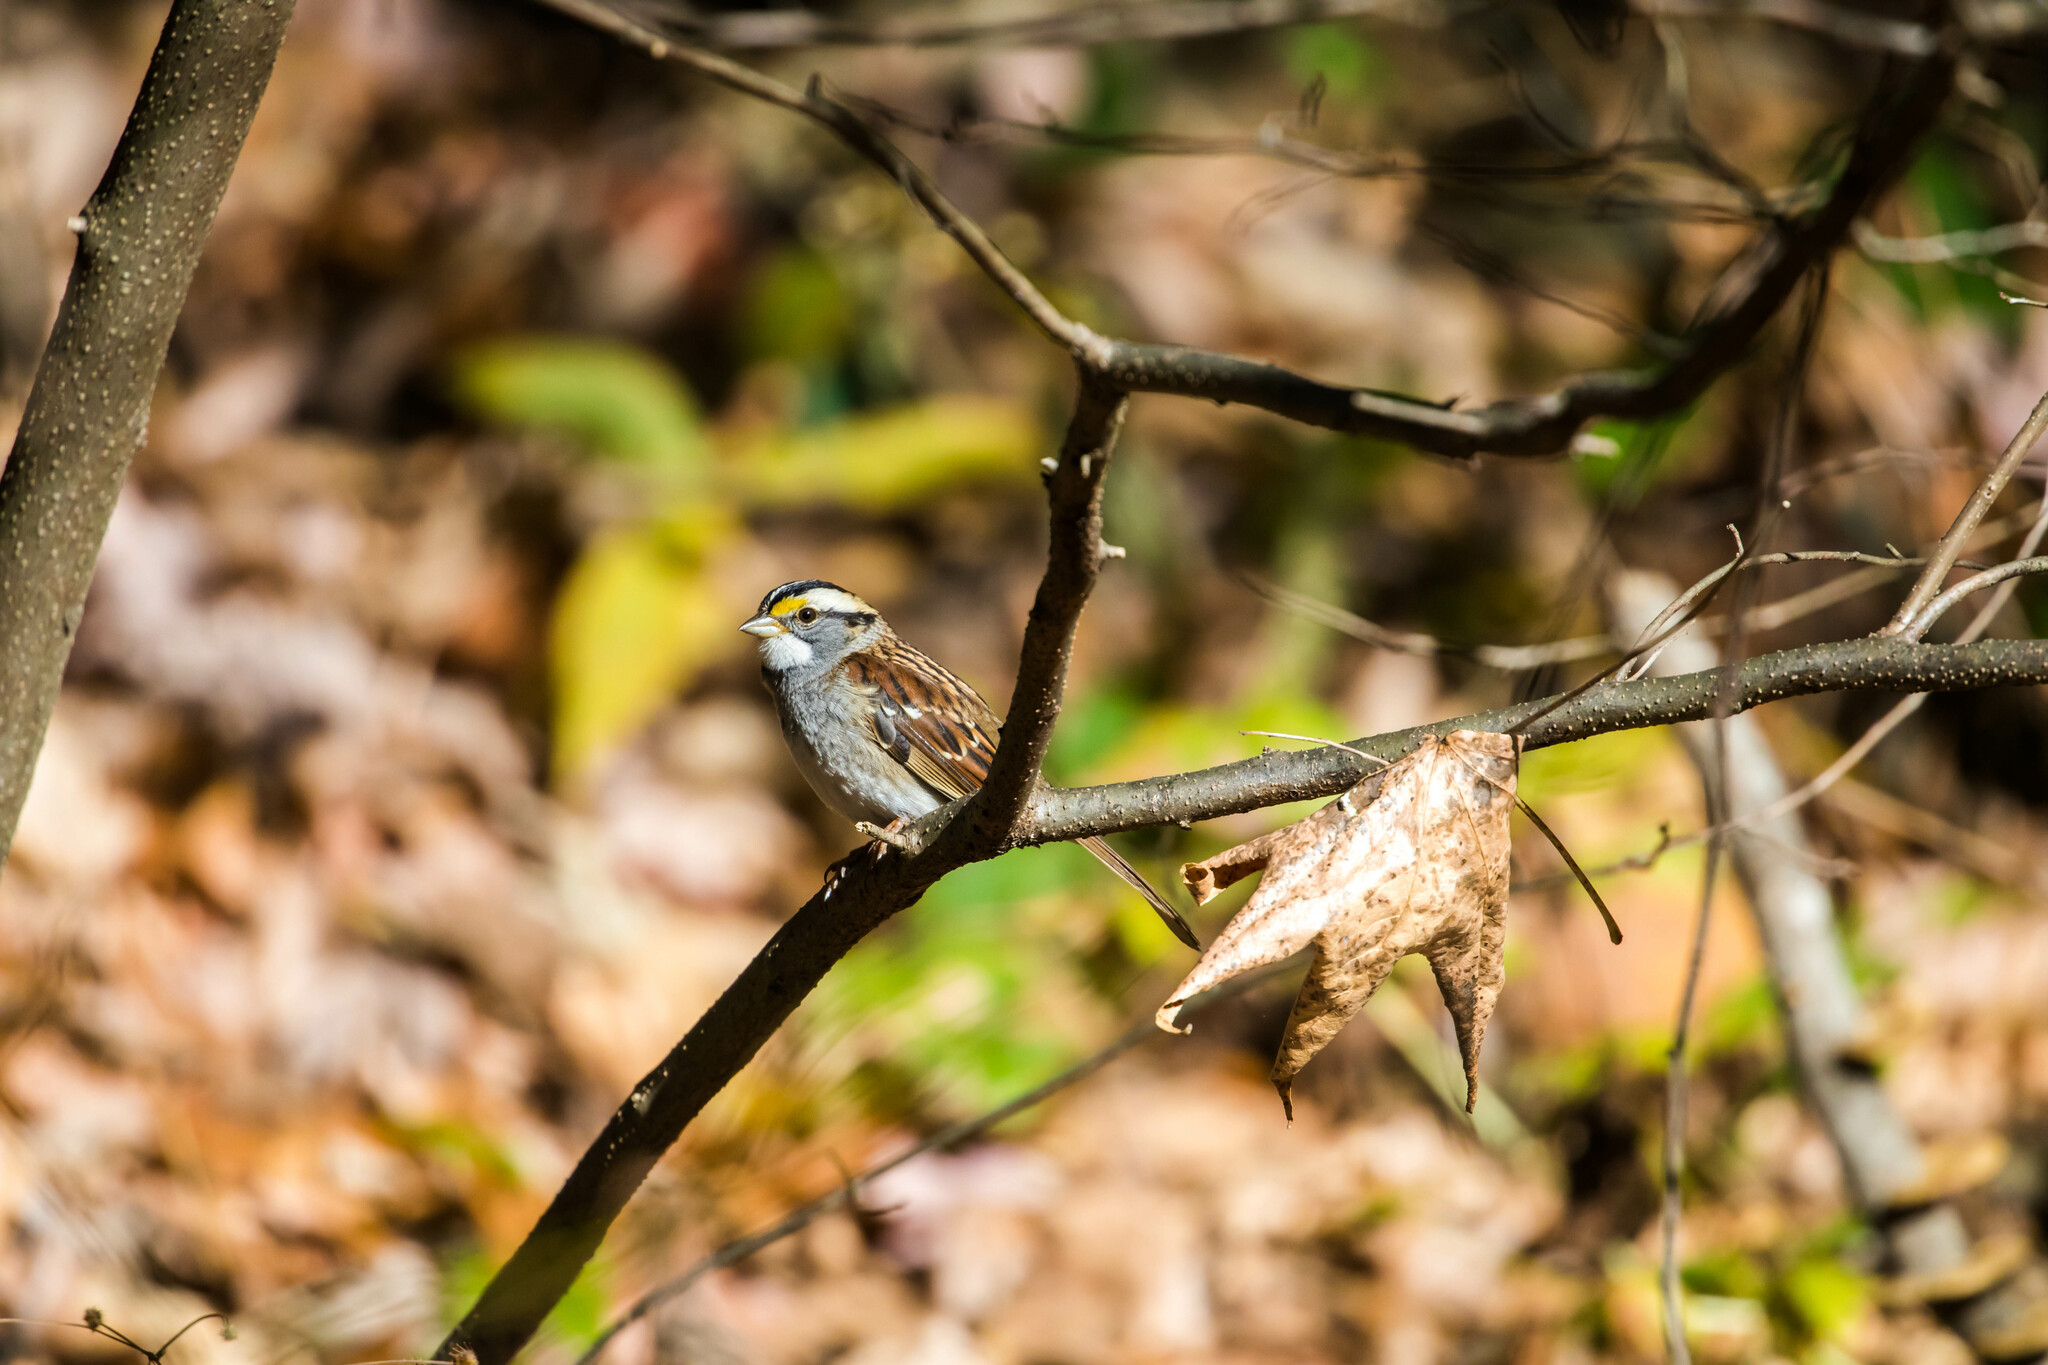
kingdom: Animalia
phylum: Chordata
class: Aves
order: Passeriformes
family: Passerellidae
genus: Zonotrichia
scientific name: Zonotrichia albicollis
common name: White-throated sparrow
